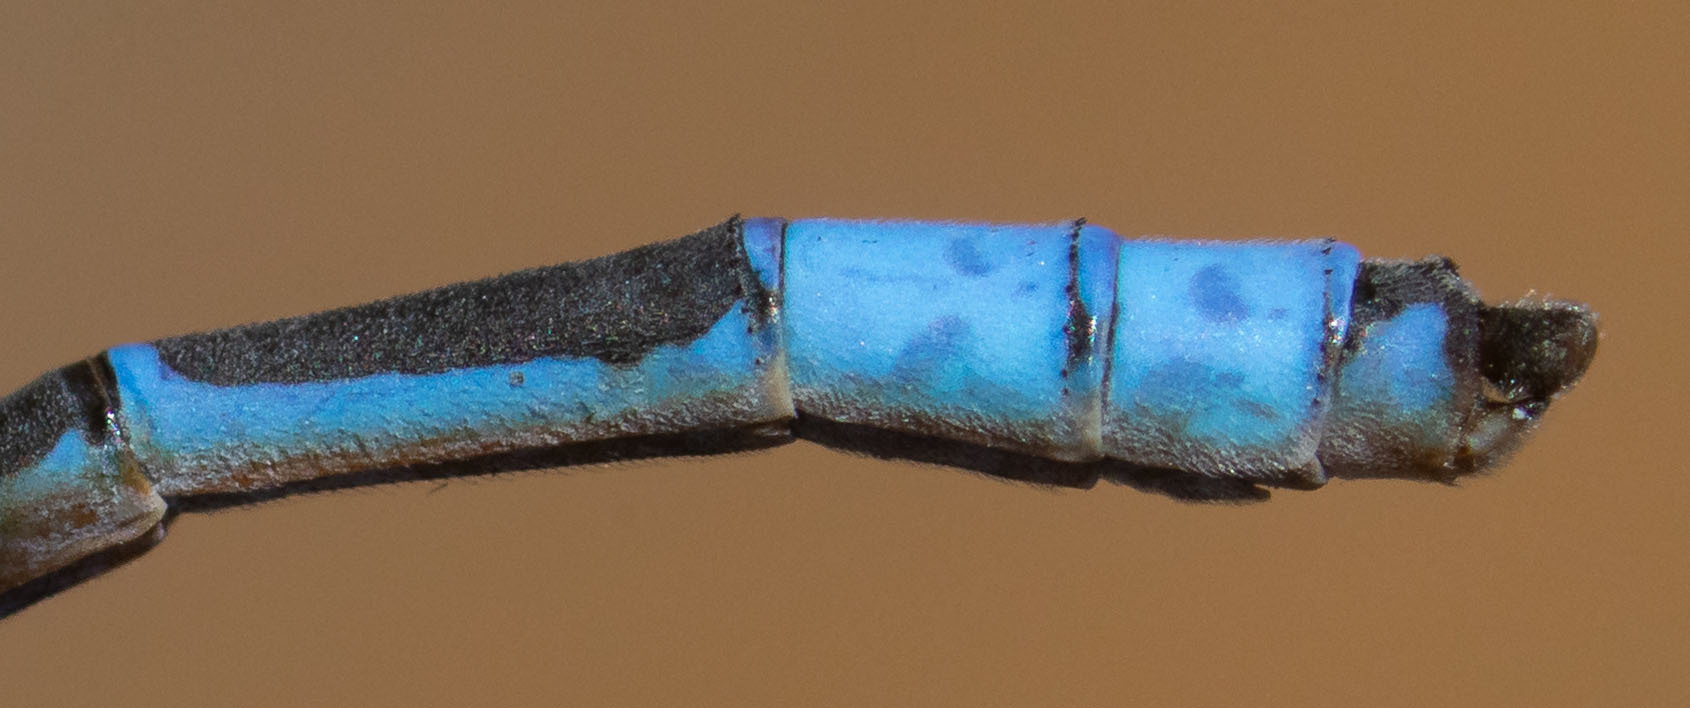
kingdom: Animalia
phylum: Arthropoda
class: Insecta
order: Odonata
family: Coenagrionidae
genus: Enallagma
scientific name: Enallagma civile
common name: Damselfly
